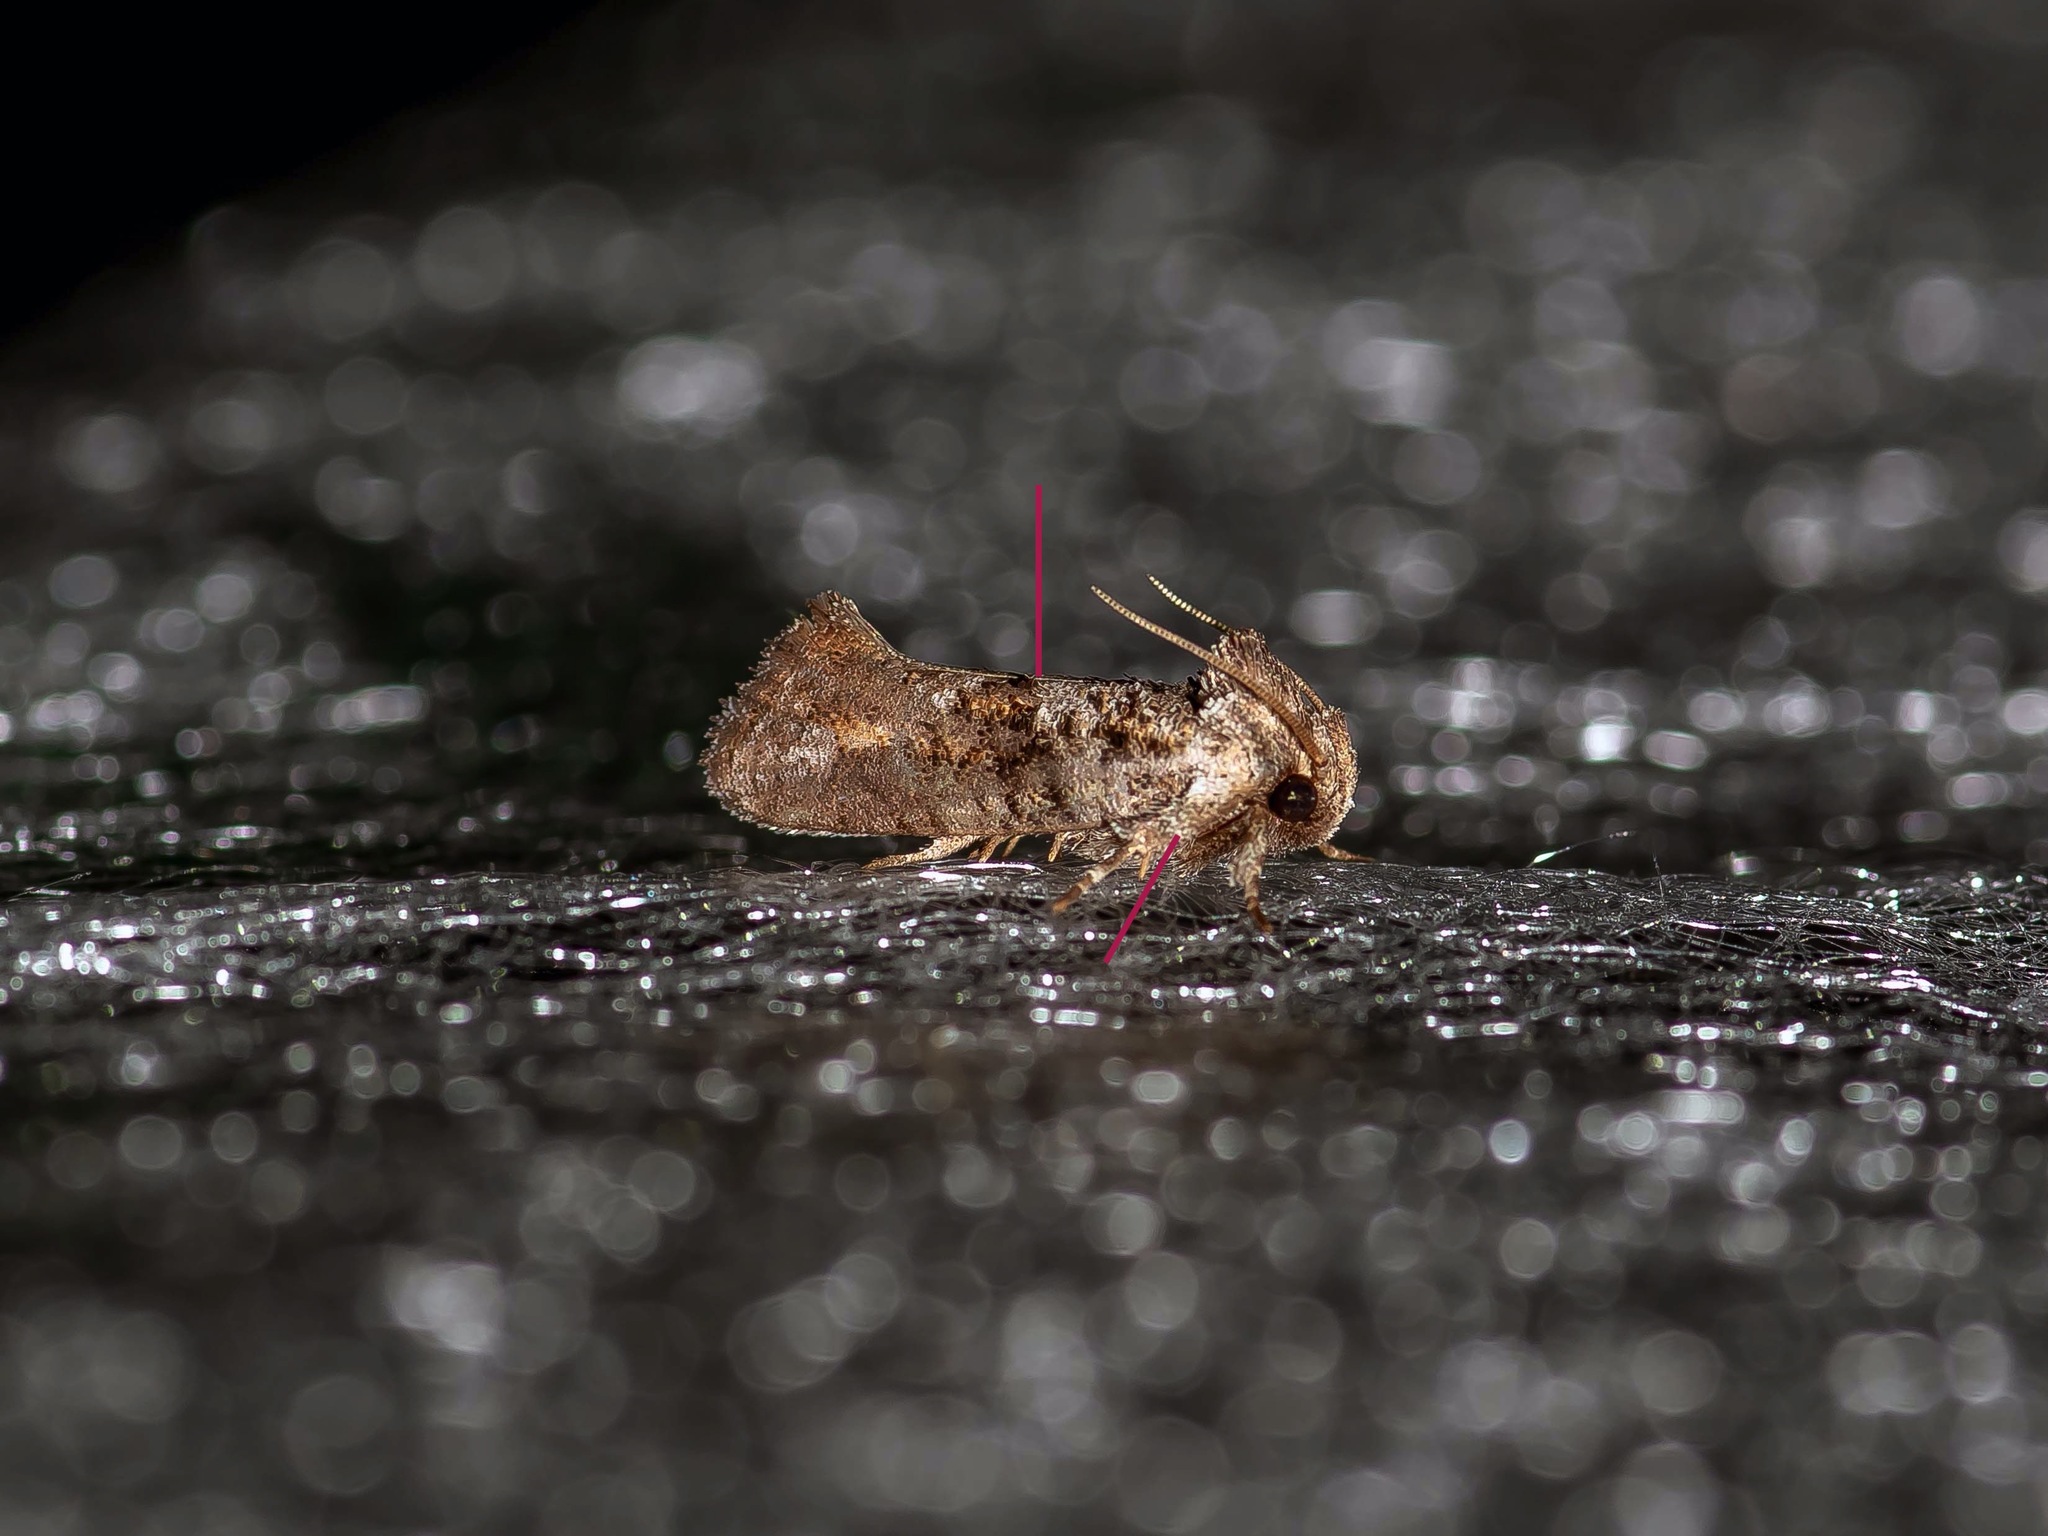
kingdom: Animalia
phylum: Arthropoda
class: Insecta
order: Lepidoptera
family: Tineidae
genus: Acrolophus
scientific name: Acrolophus piger
